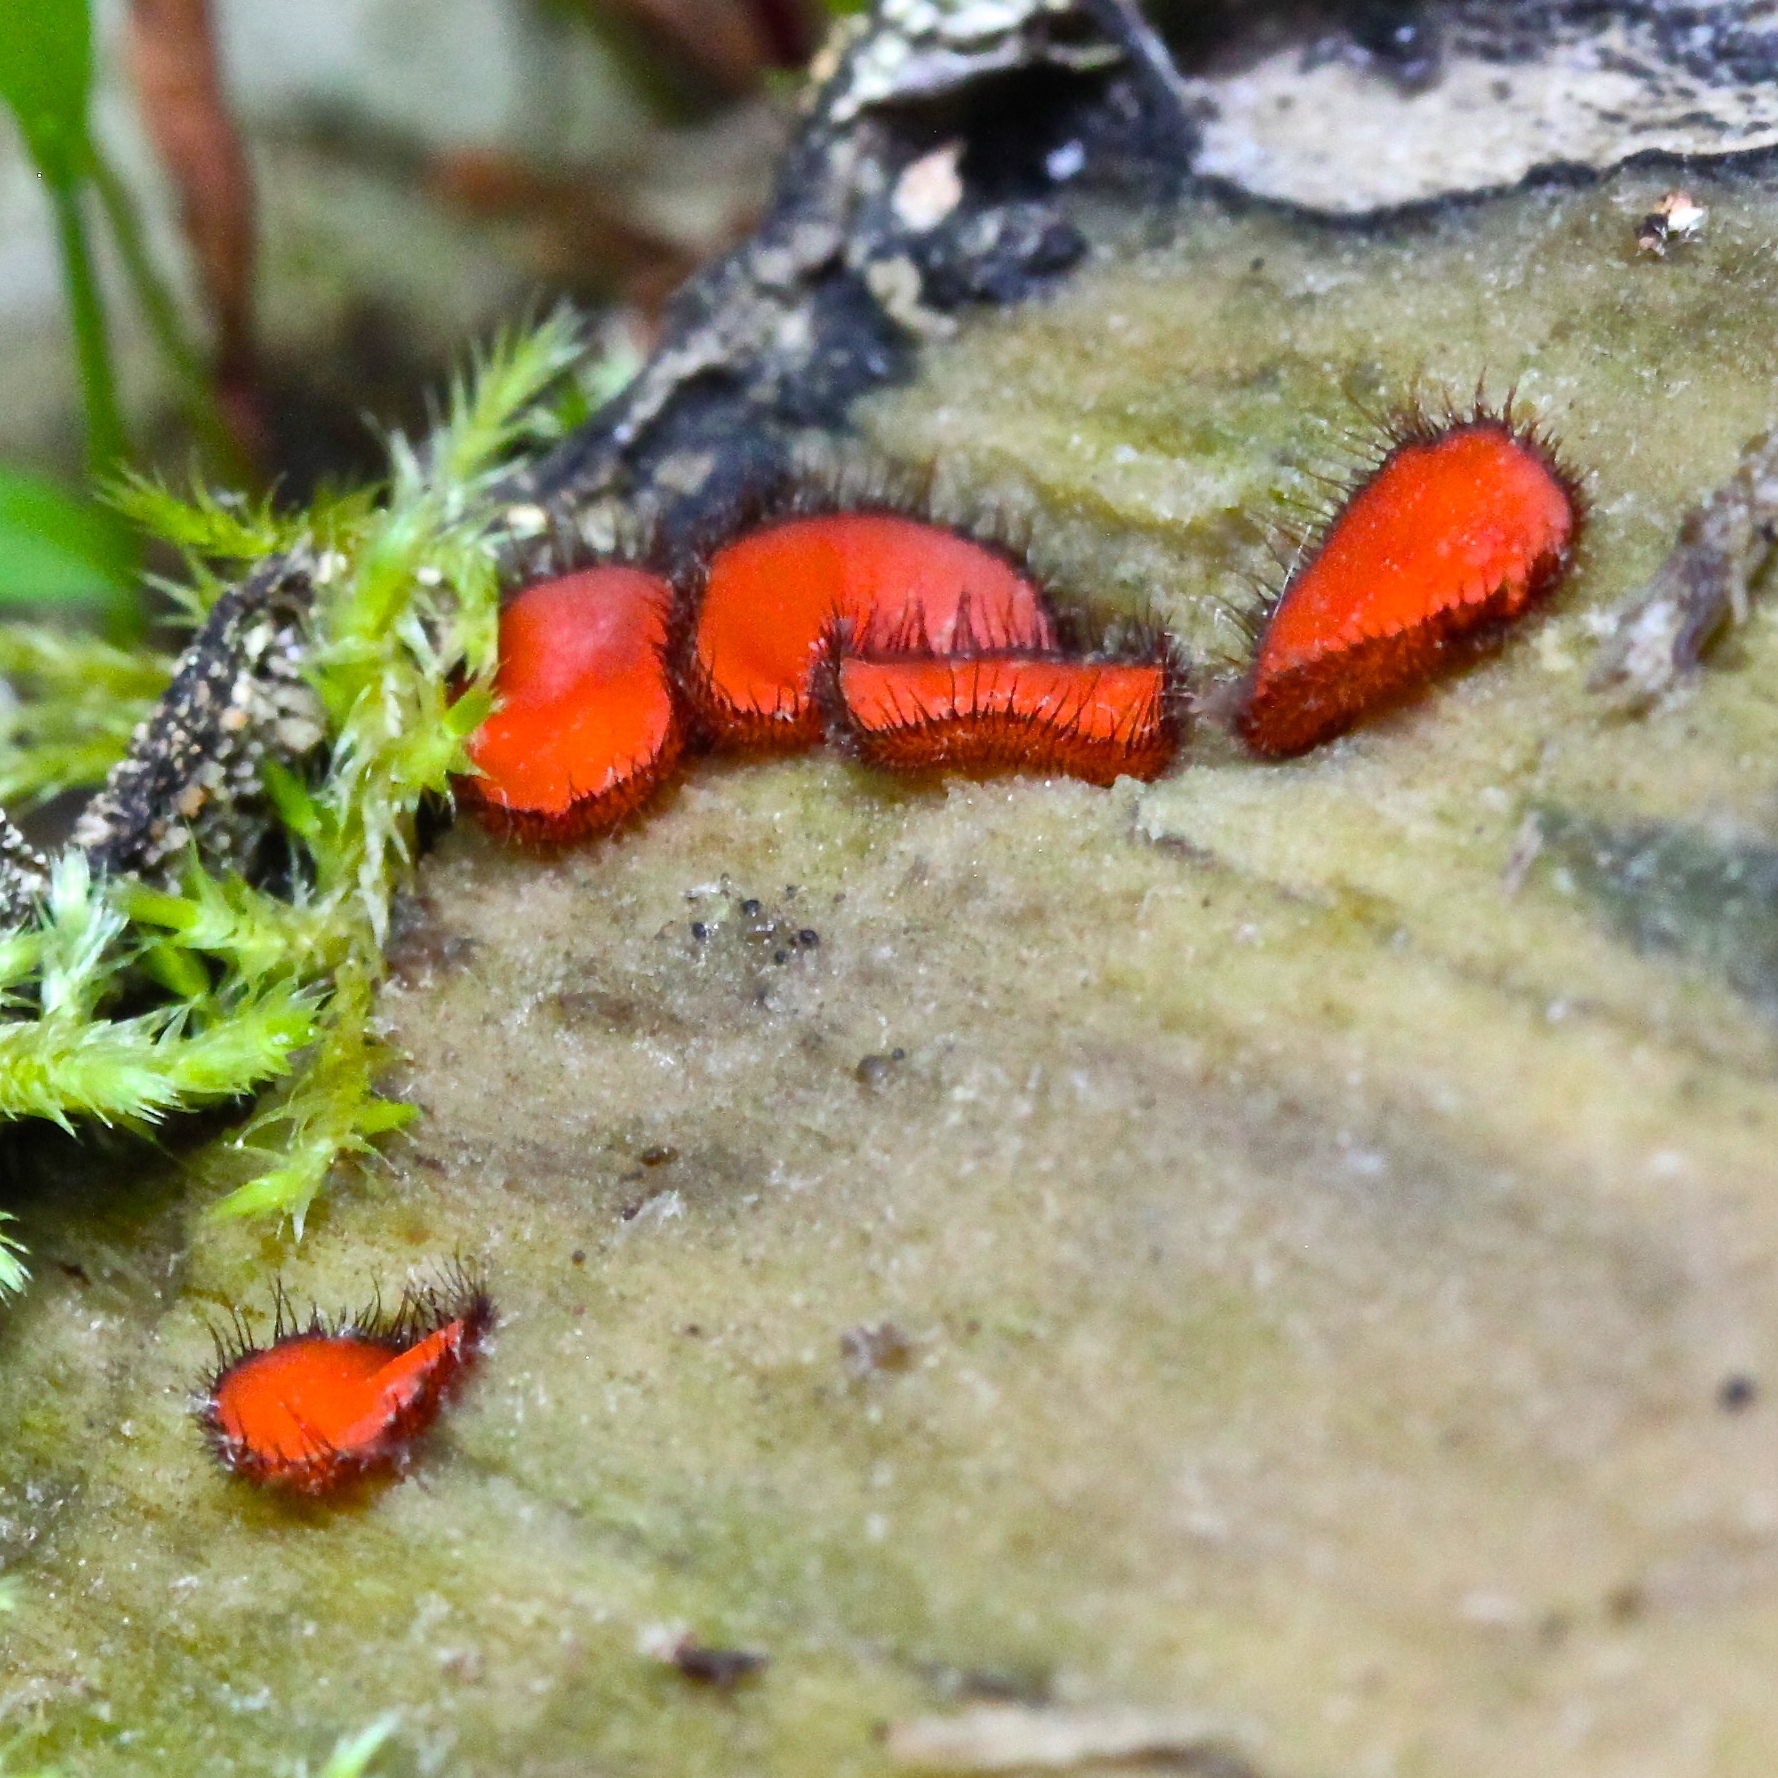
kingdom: Fungi
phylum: Ascomycota
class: Pezizomycetes
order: Pezizales
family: Pyronemataceae
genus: Scutellinia
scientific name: Scutellinia scutellata
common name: Common eyelash
